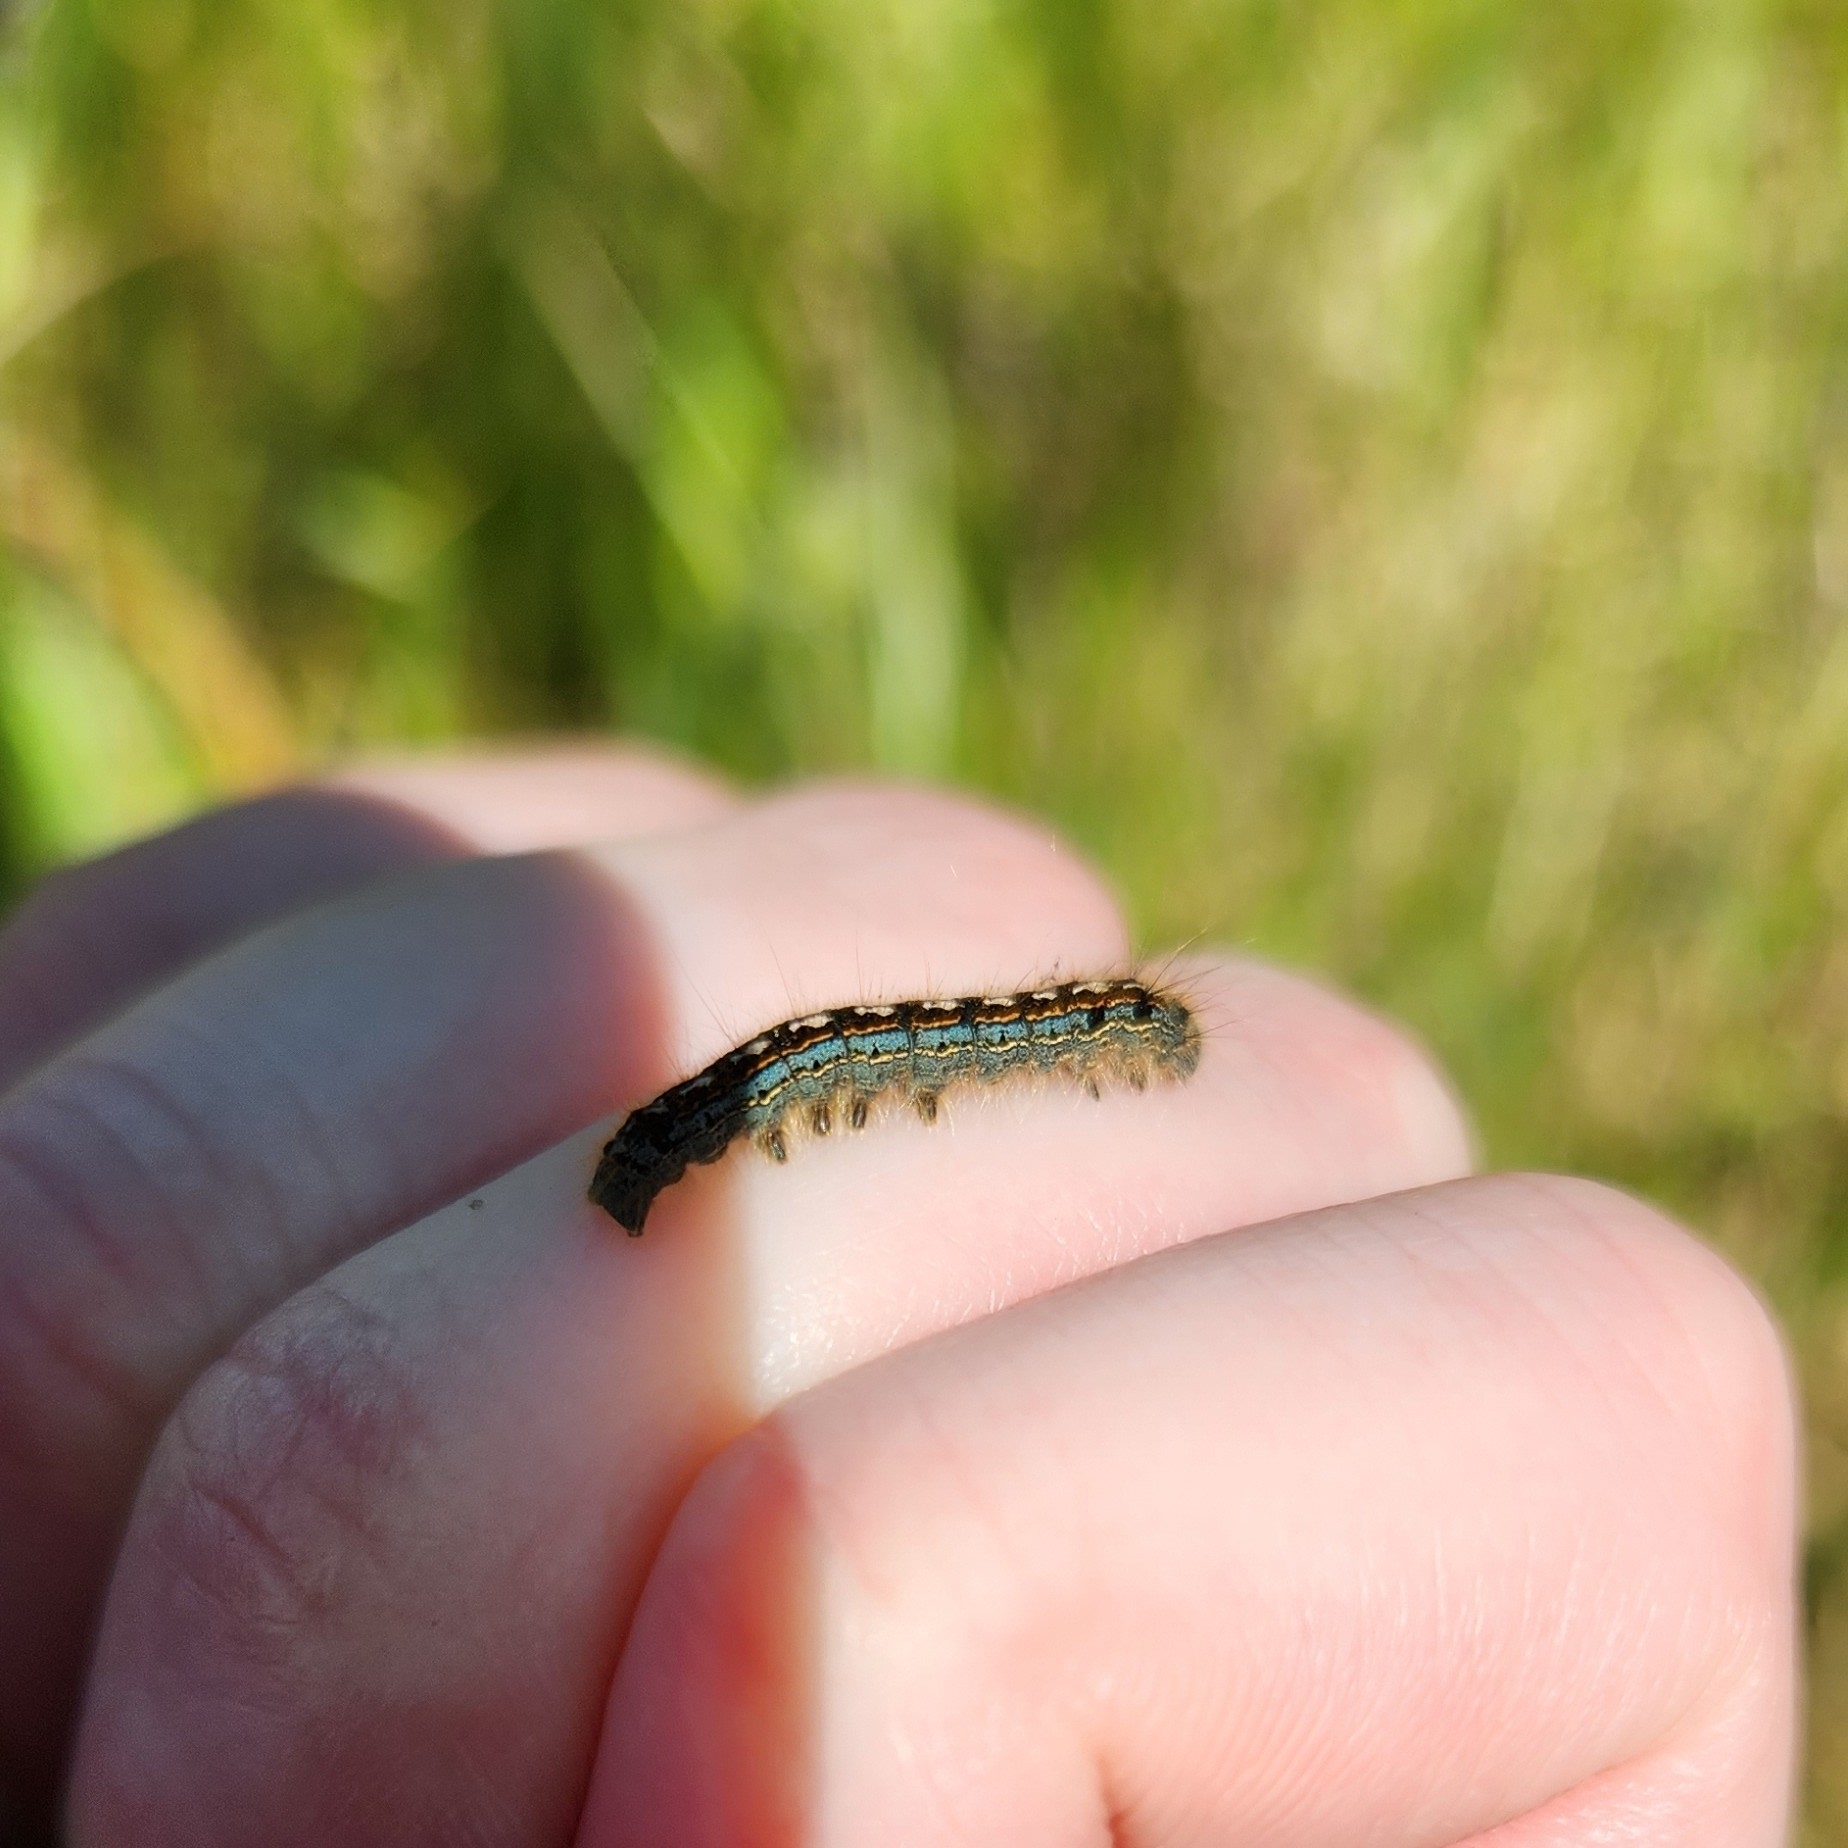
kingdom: Animalia
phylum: Arthropoda
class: Insecta
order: Lepidoptera
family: Lasiocampidae
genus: Malacosoma
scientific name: Malacosoma disstria
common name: Forest tent caterpillar
